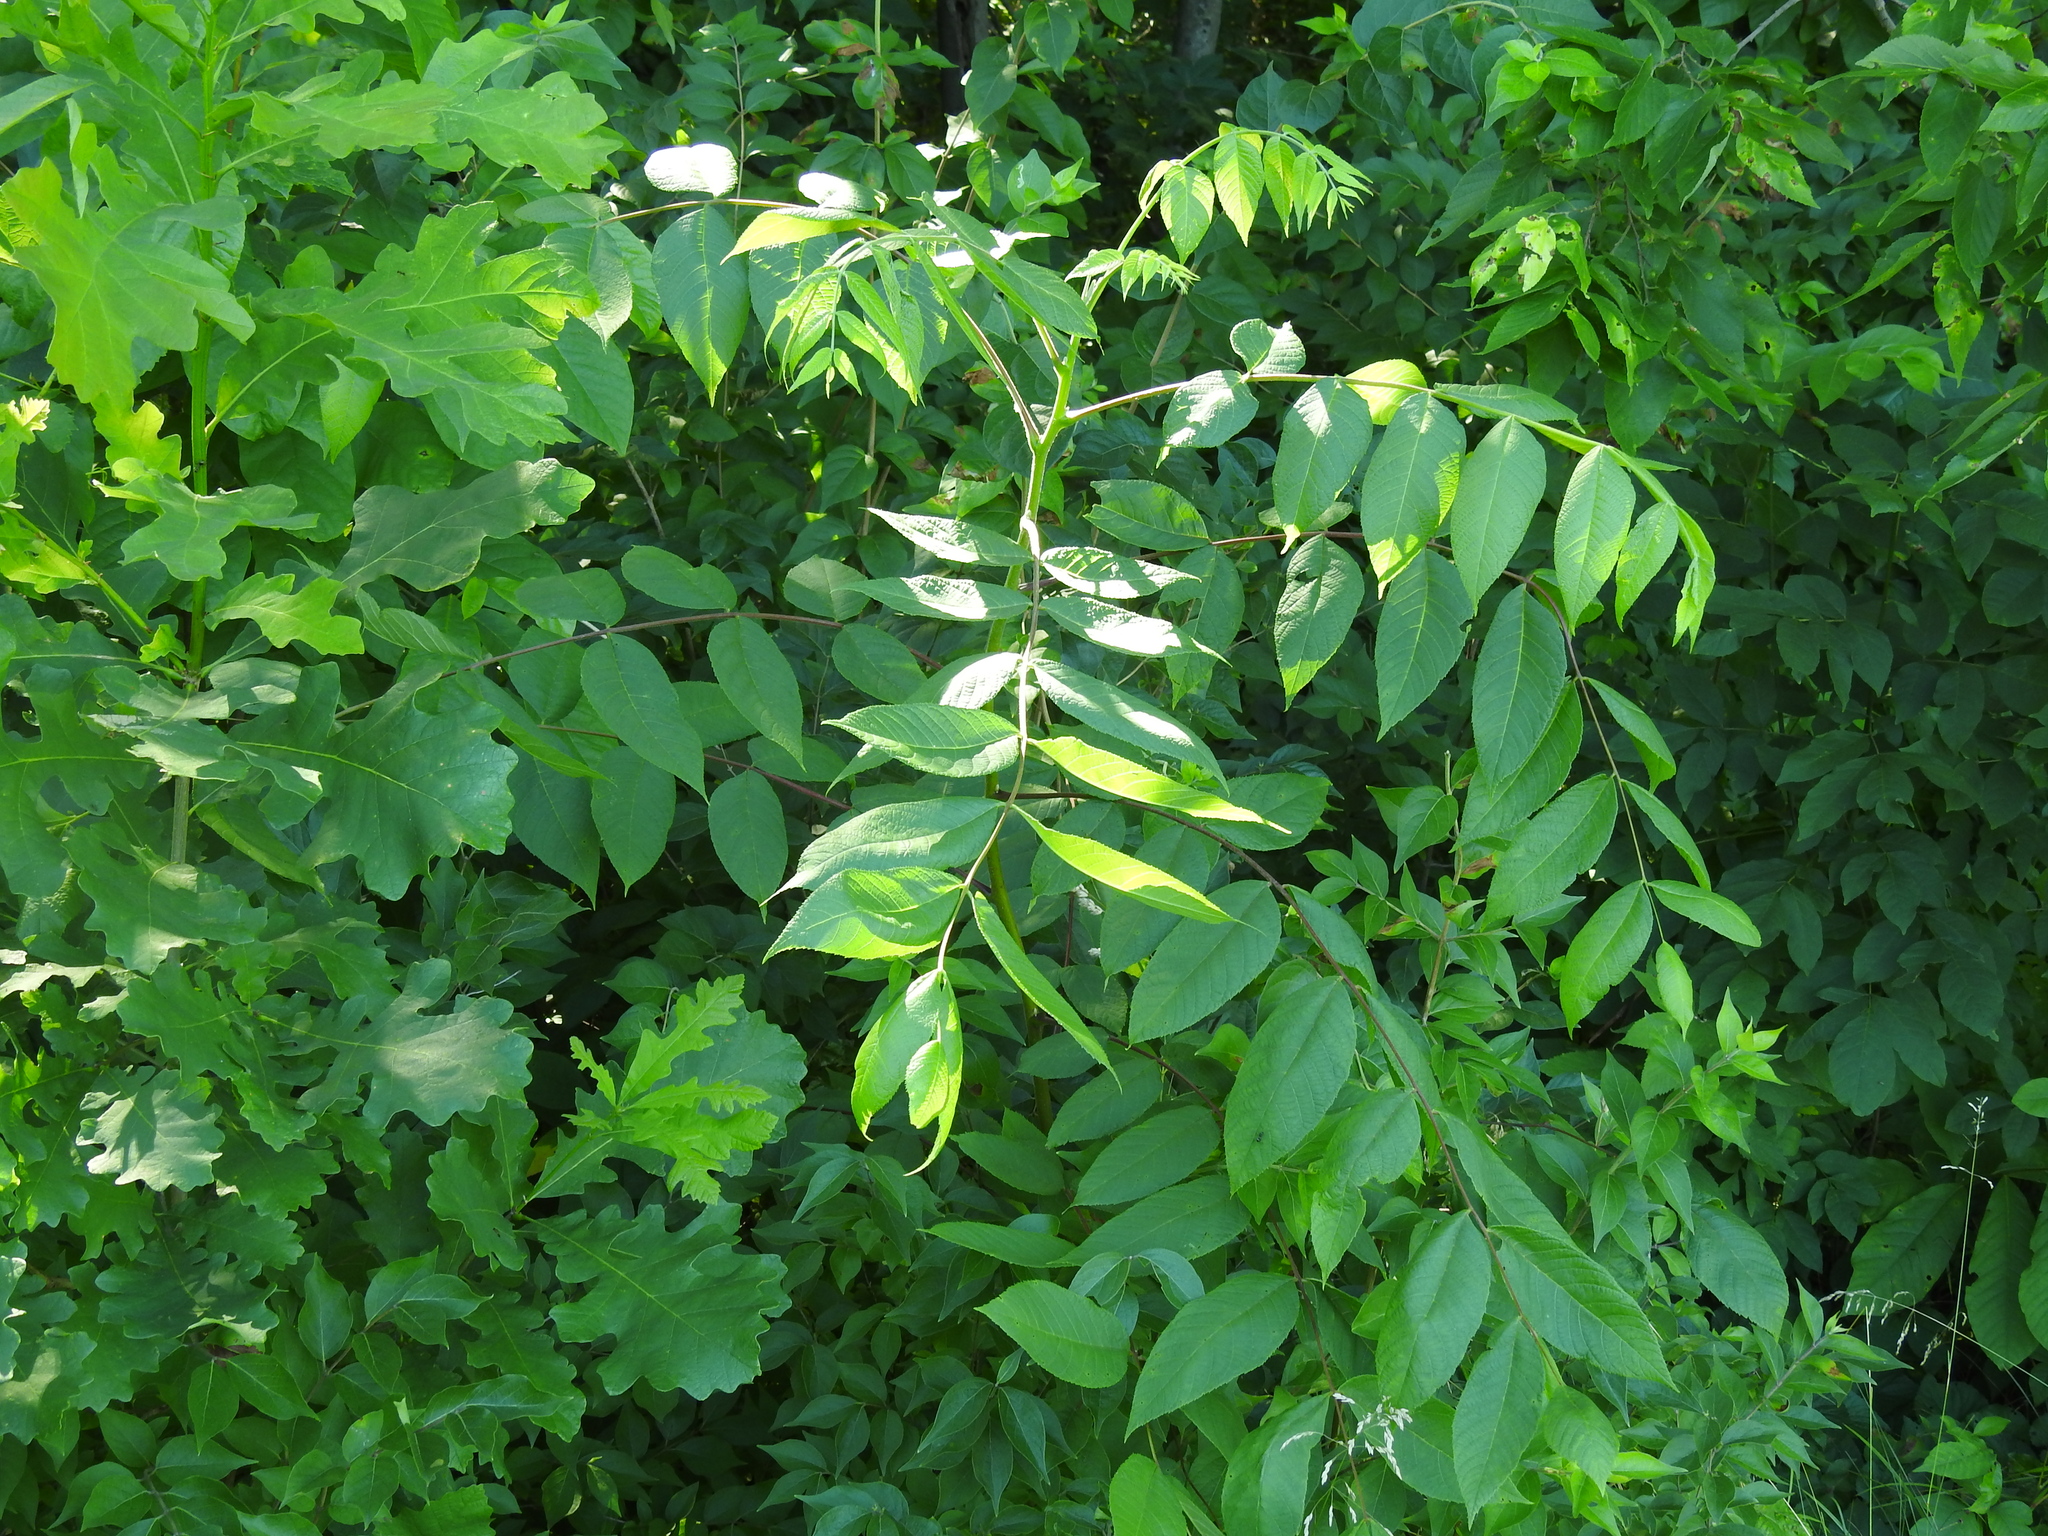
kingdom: Plantae
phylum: Tracheophyta
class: Magnoliopsida
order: Fagales
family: Juglandaceae
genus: Juglans
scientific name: Juglans nigra
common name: Black walnut
